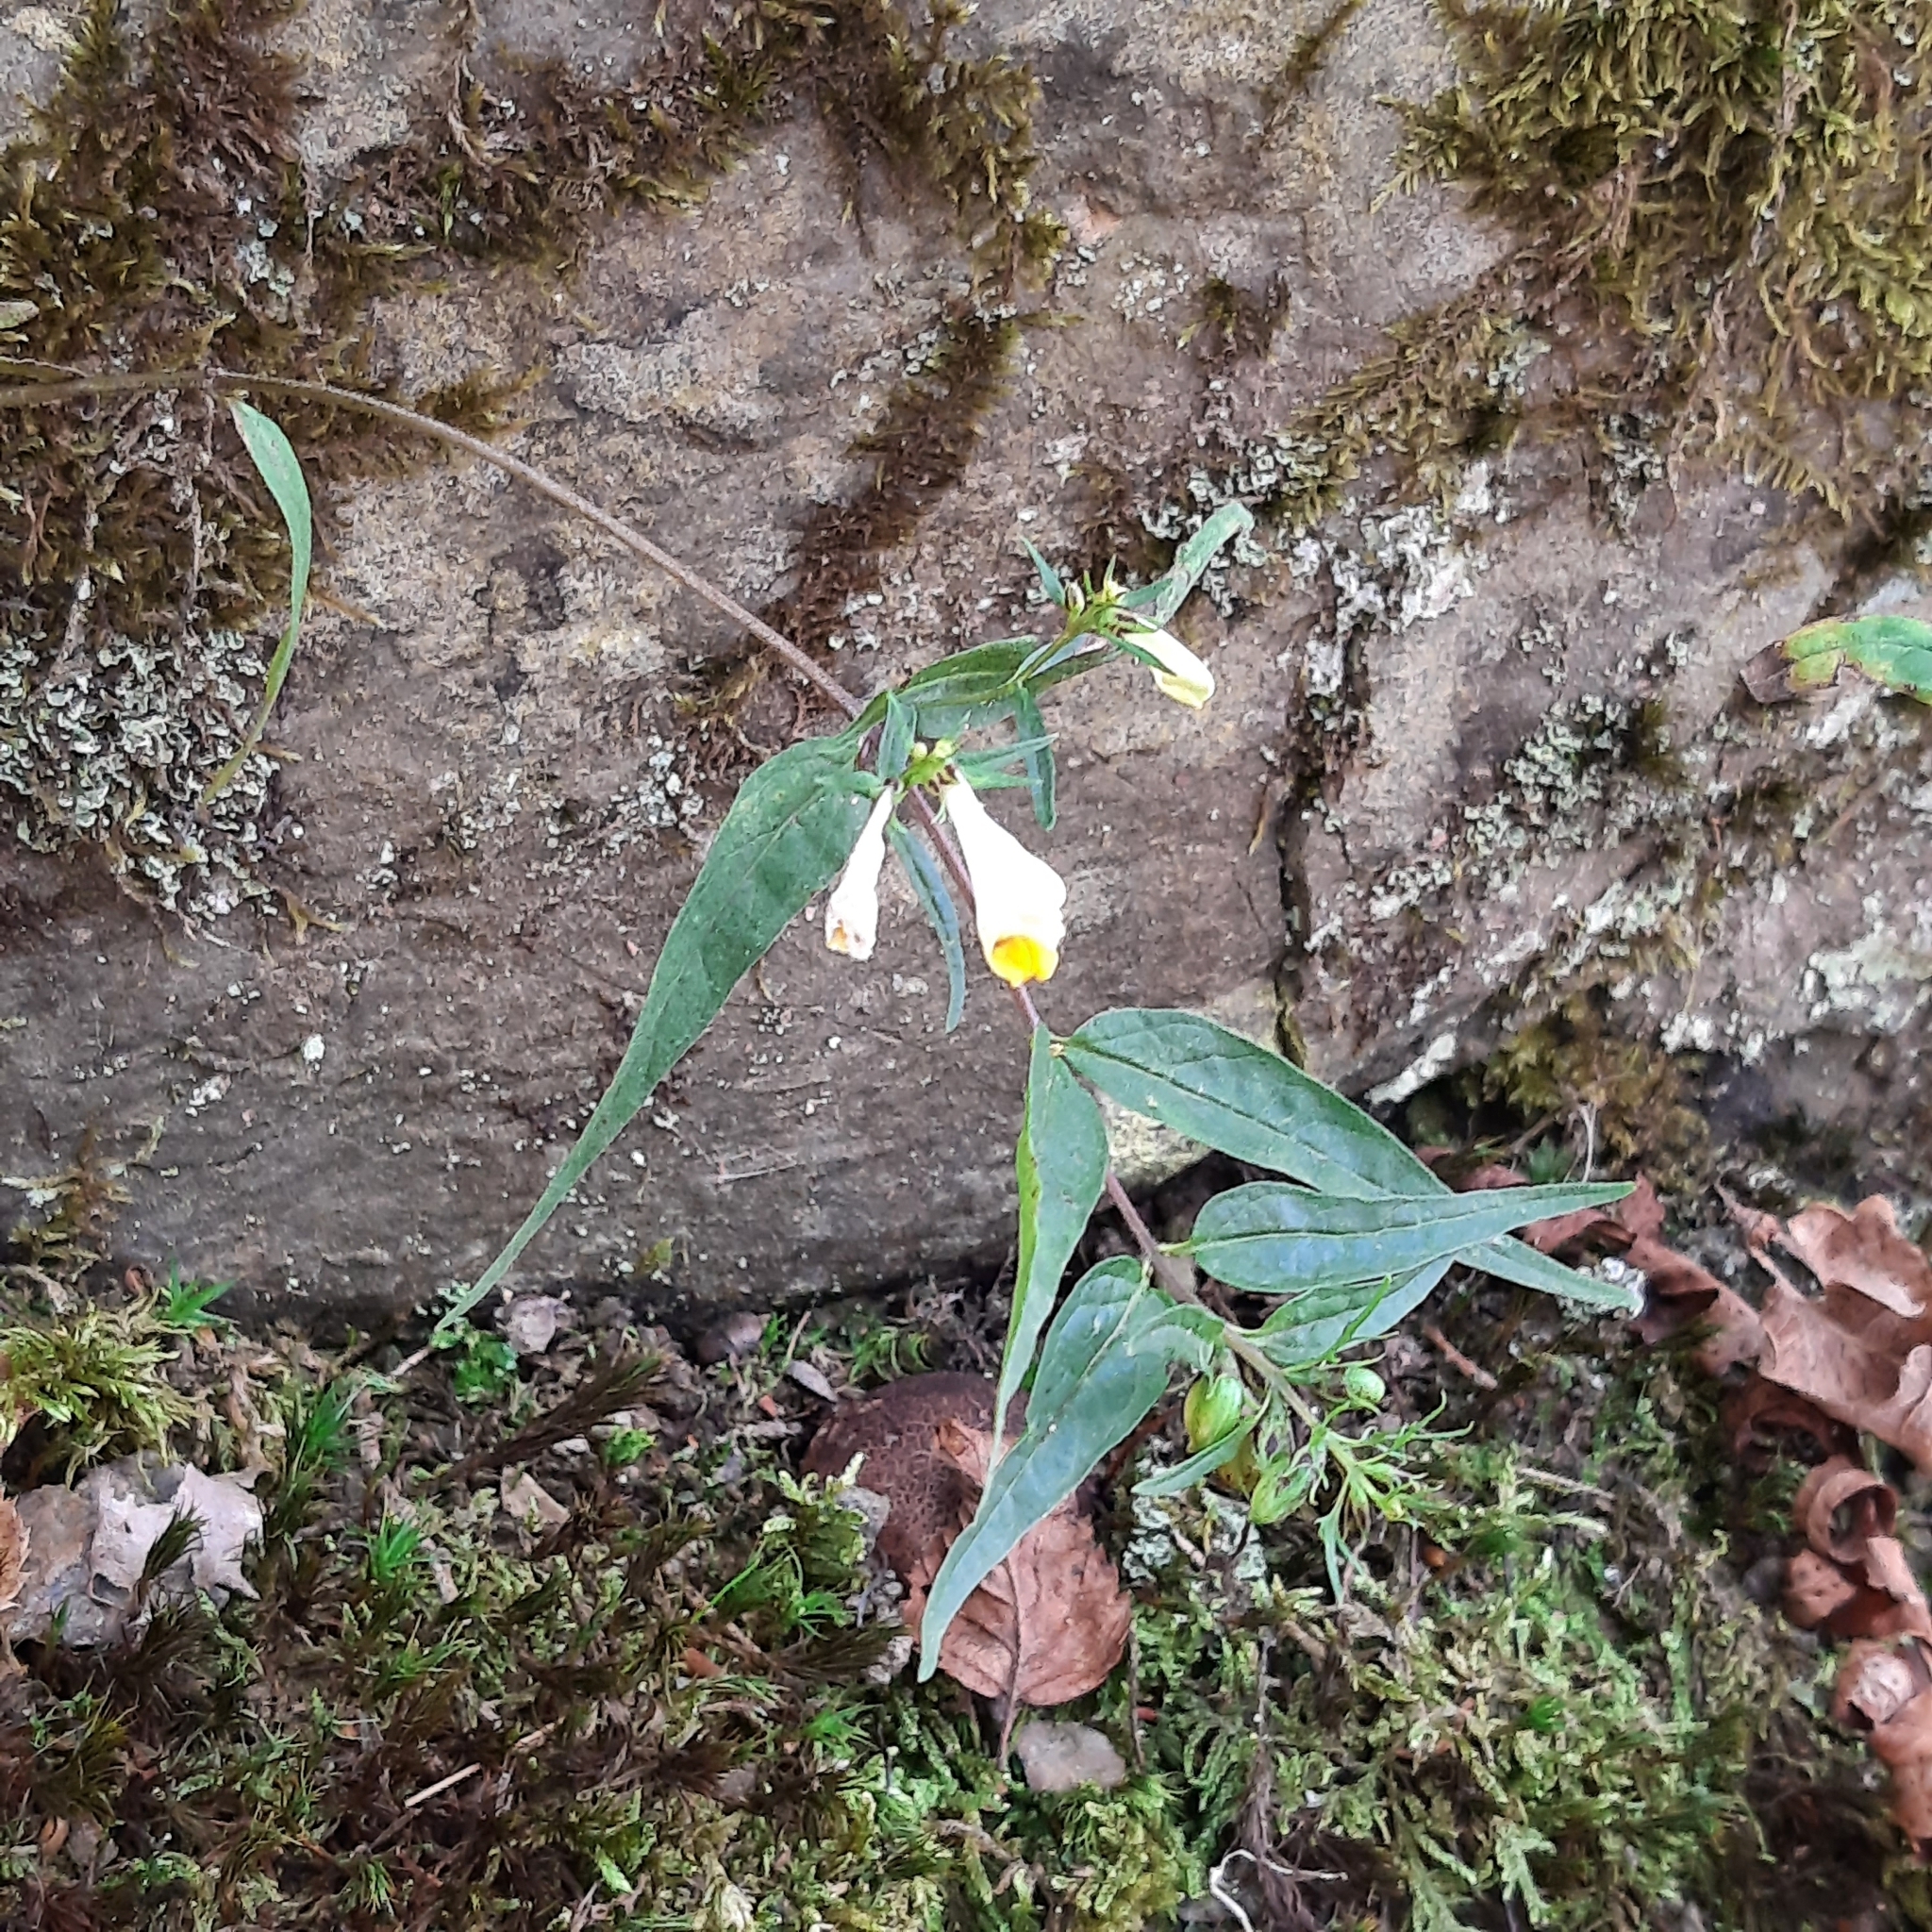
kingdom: Plantae
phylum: Tracheophyta
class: Magnoliopsida
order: Lamiales
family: Orobanchaceae
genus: Melampyrum
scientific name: Melampyrum pratense
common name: Common cow-wheat
